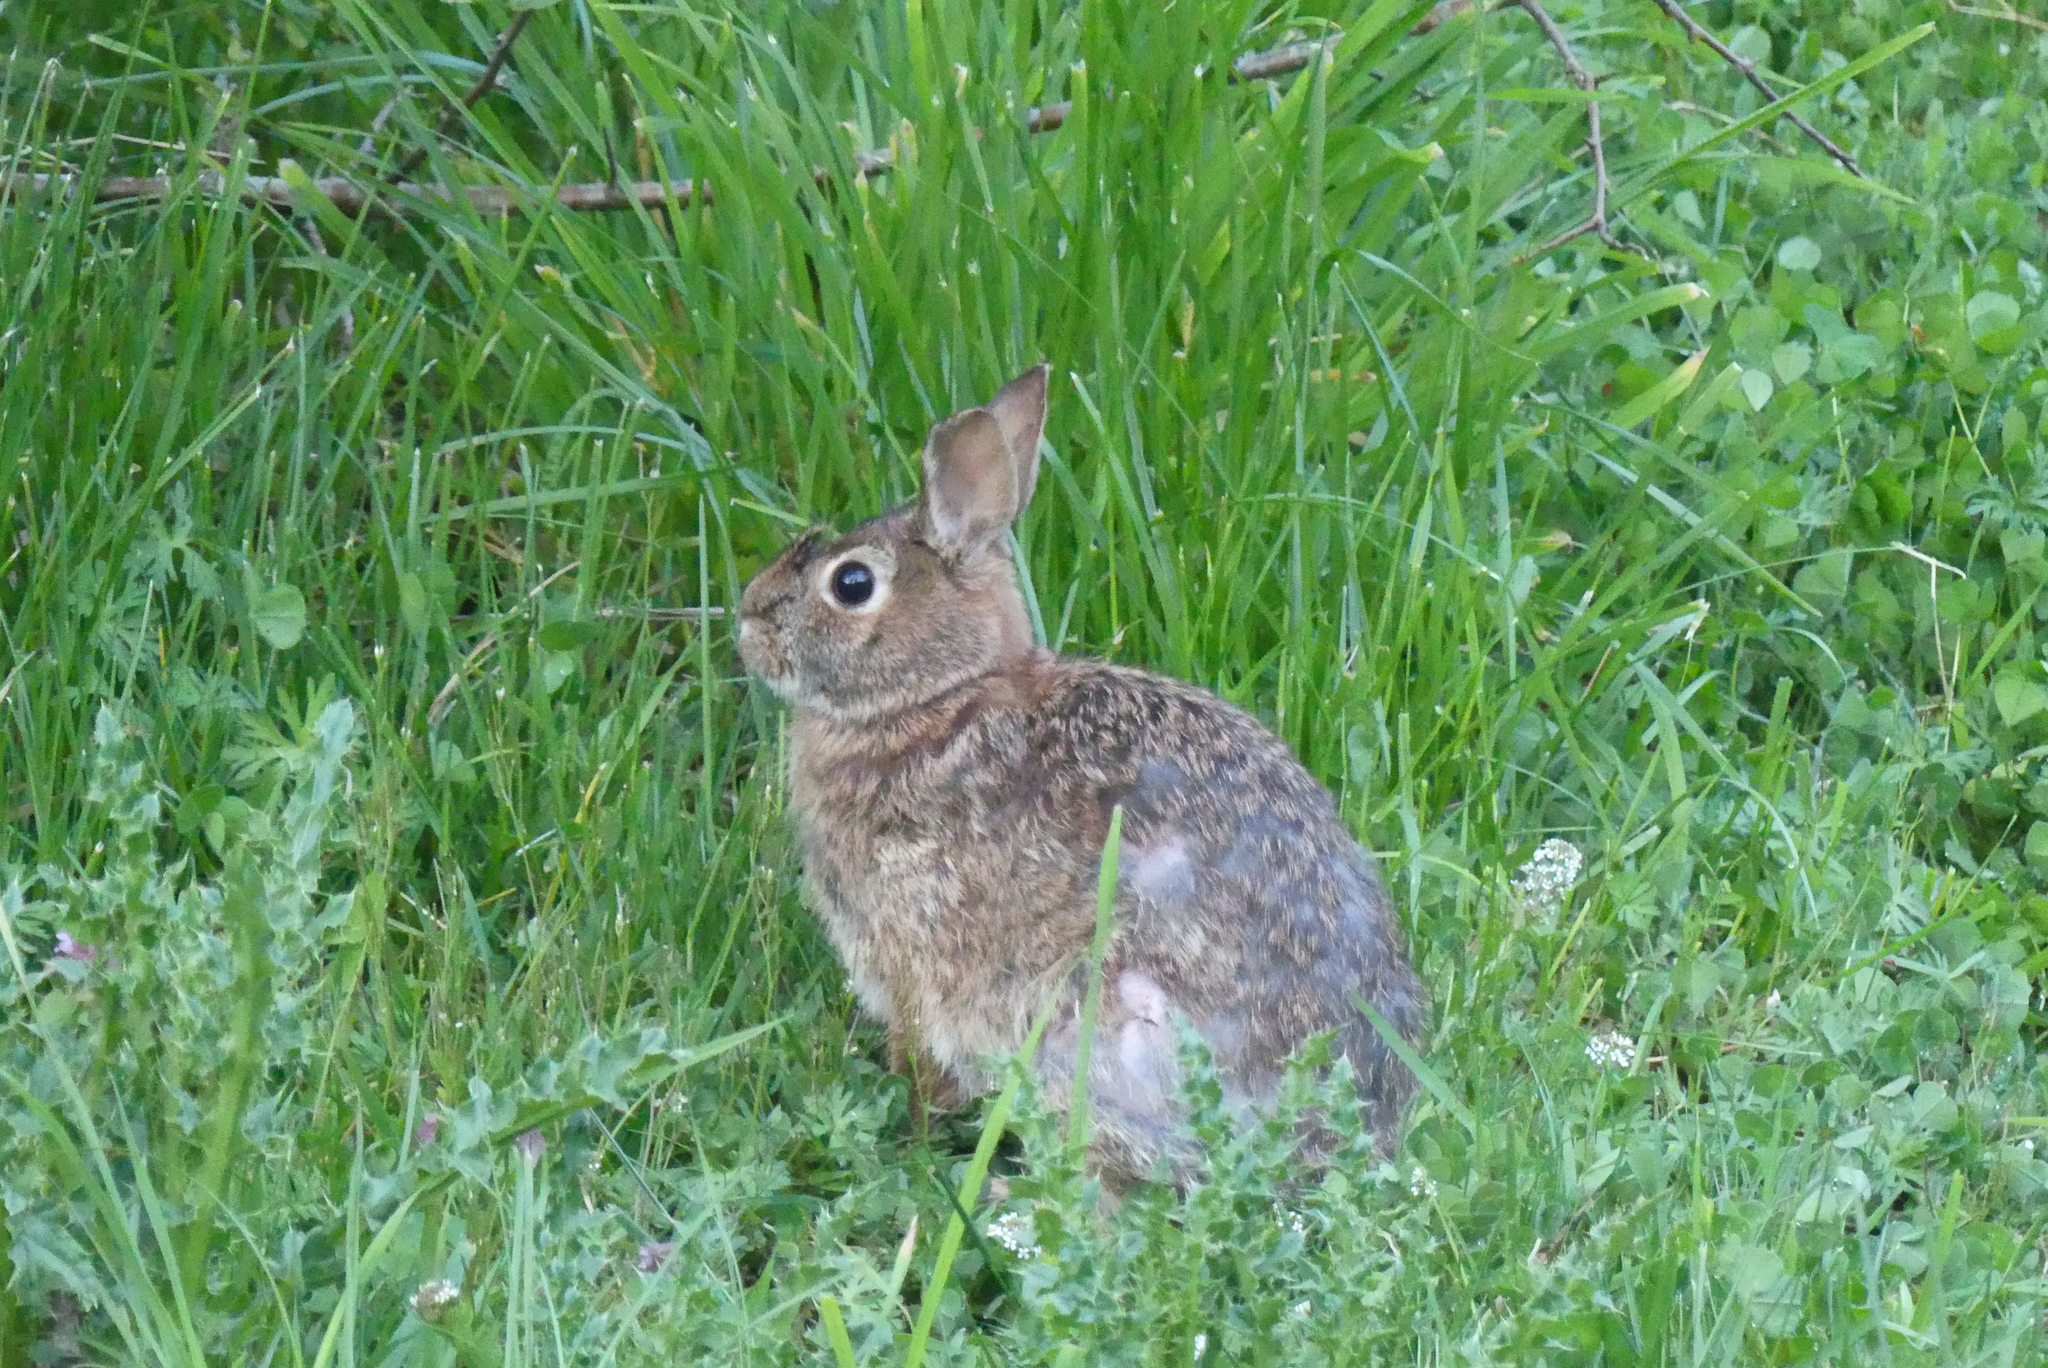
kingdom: Animalia
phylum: Chordata
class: Mammalia
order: Lagomorpha
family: Leporidae
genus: Sylvilagus
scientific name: Sylvilagus floridanus
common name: Eastern cottontail
